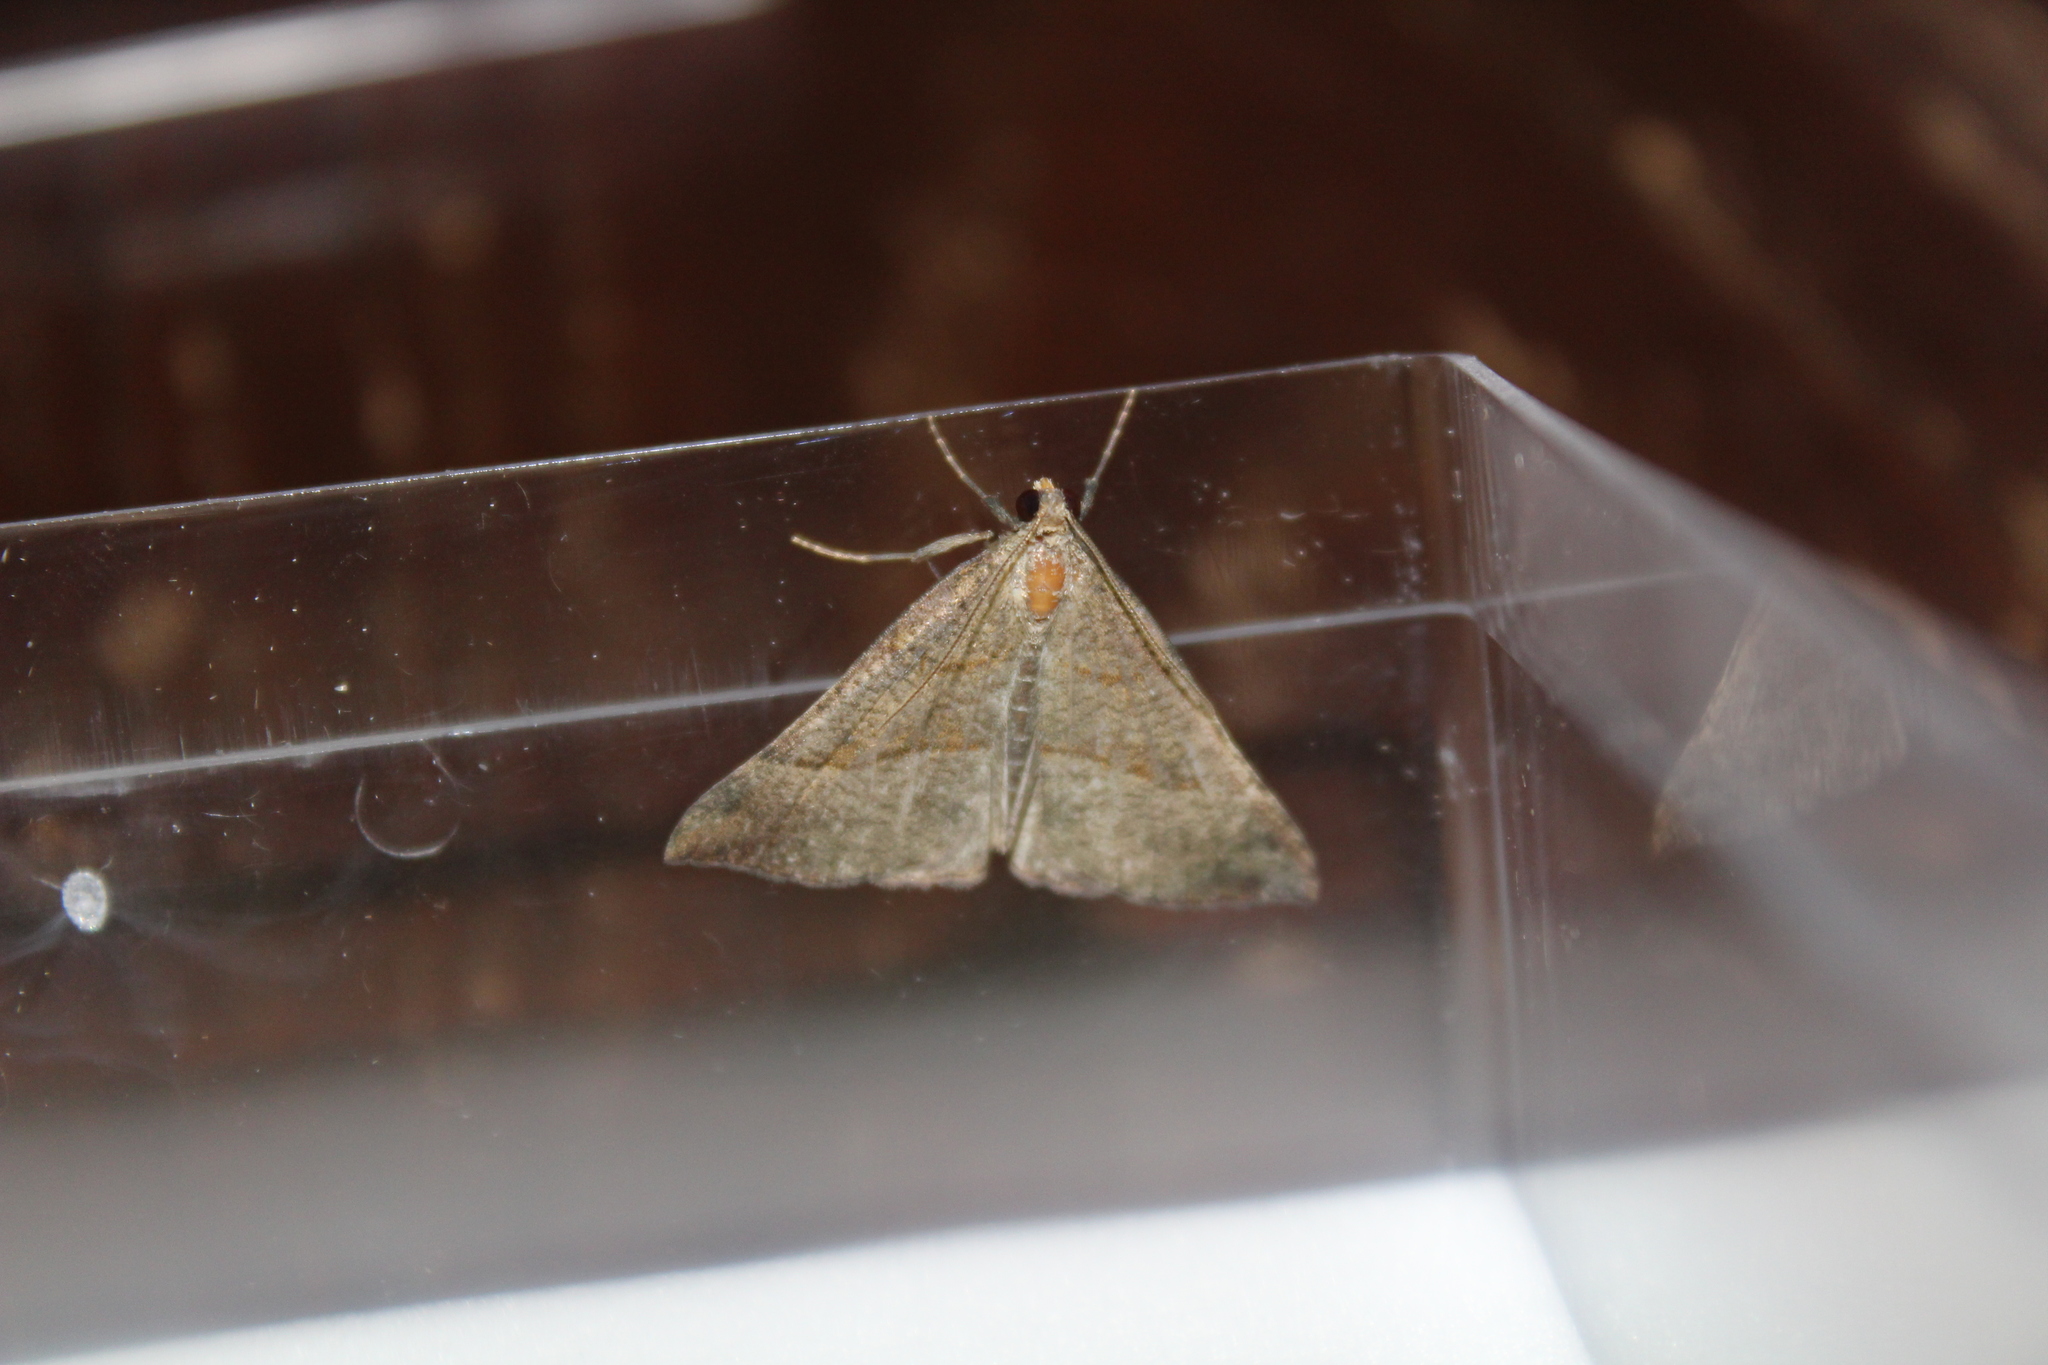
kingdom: Animalia
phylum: Arthropoda
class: Insecta
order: Lepidoptera
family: Erebidae
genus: Hypena
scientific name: Hypena proboscidalis
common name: Snout
